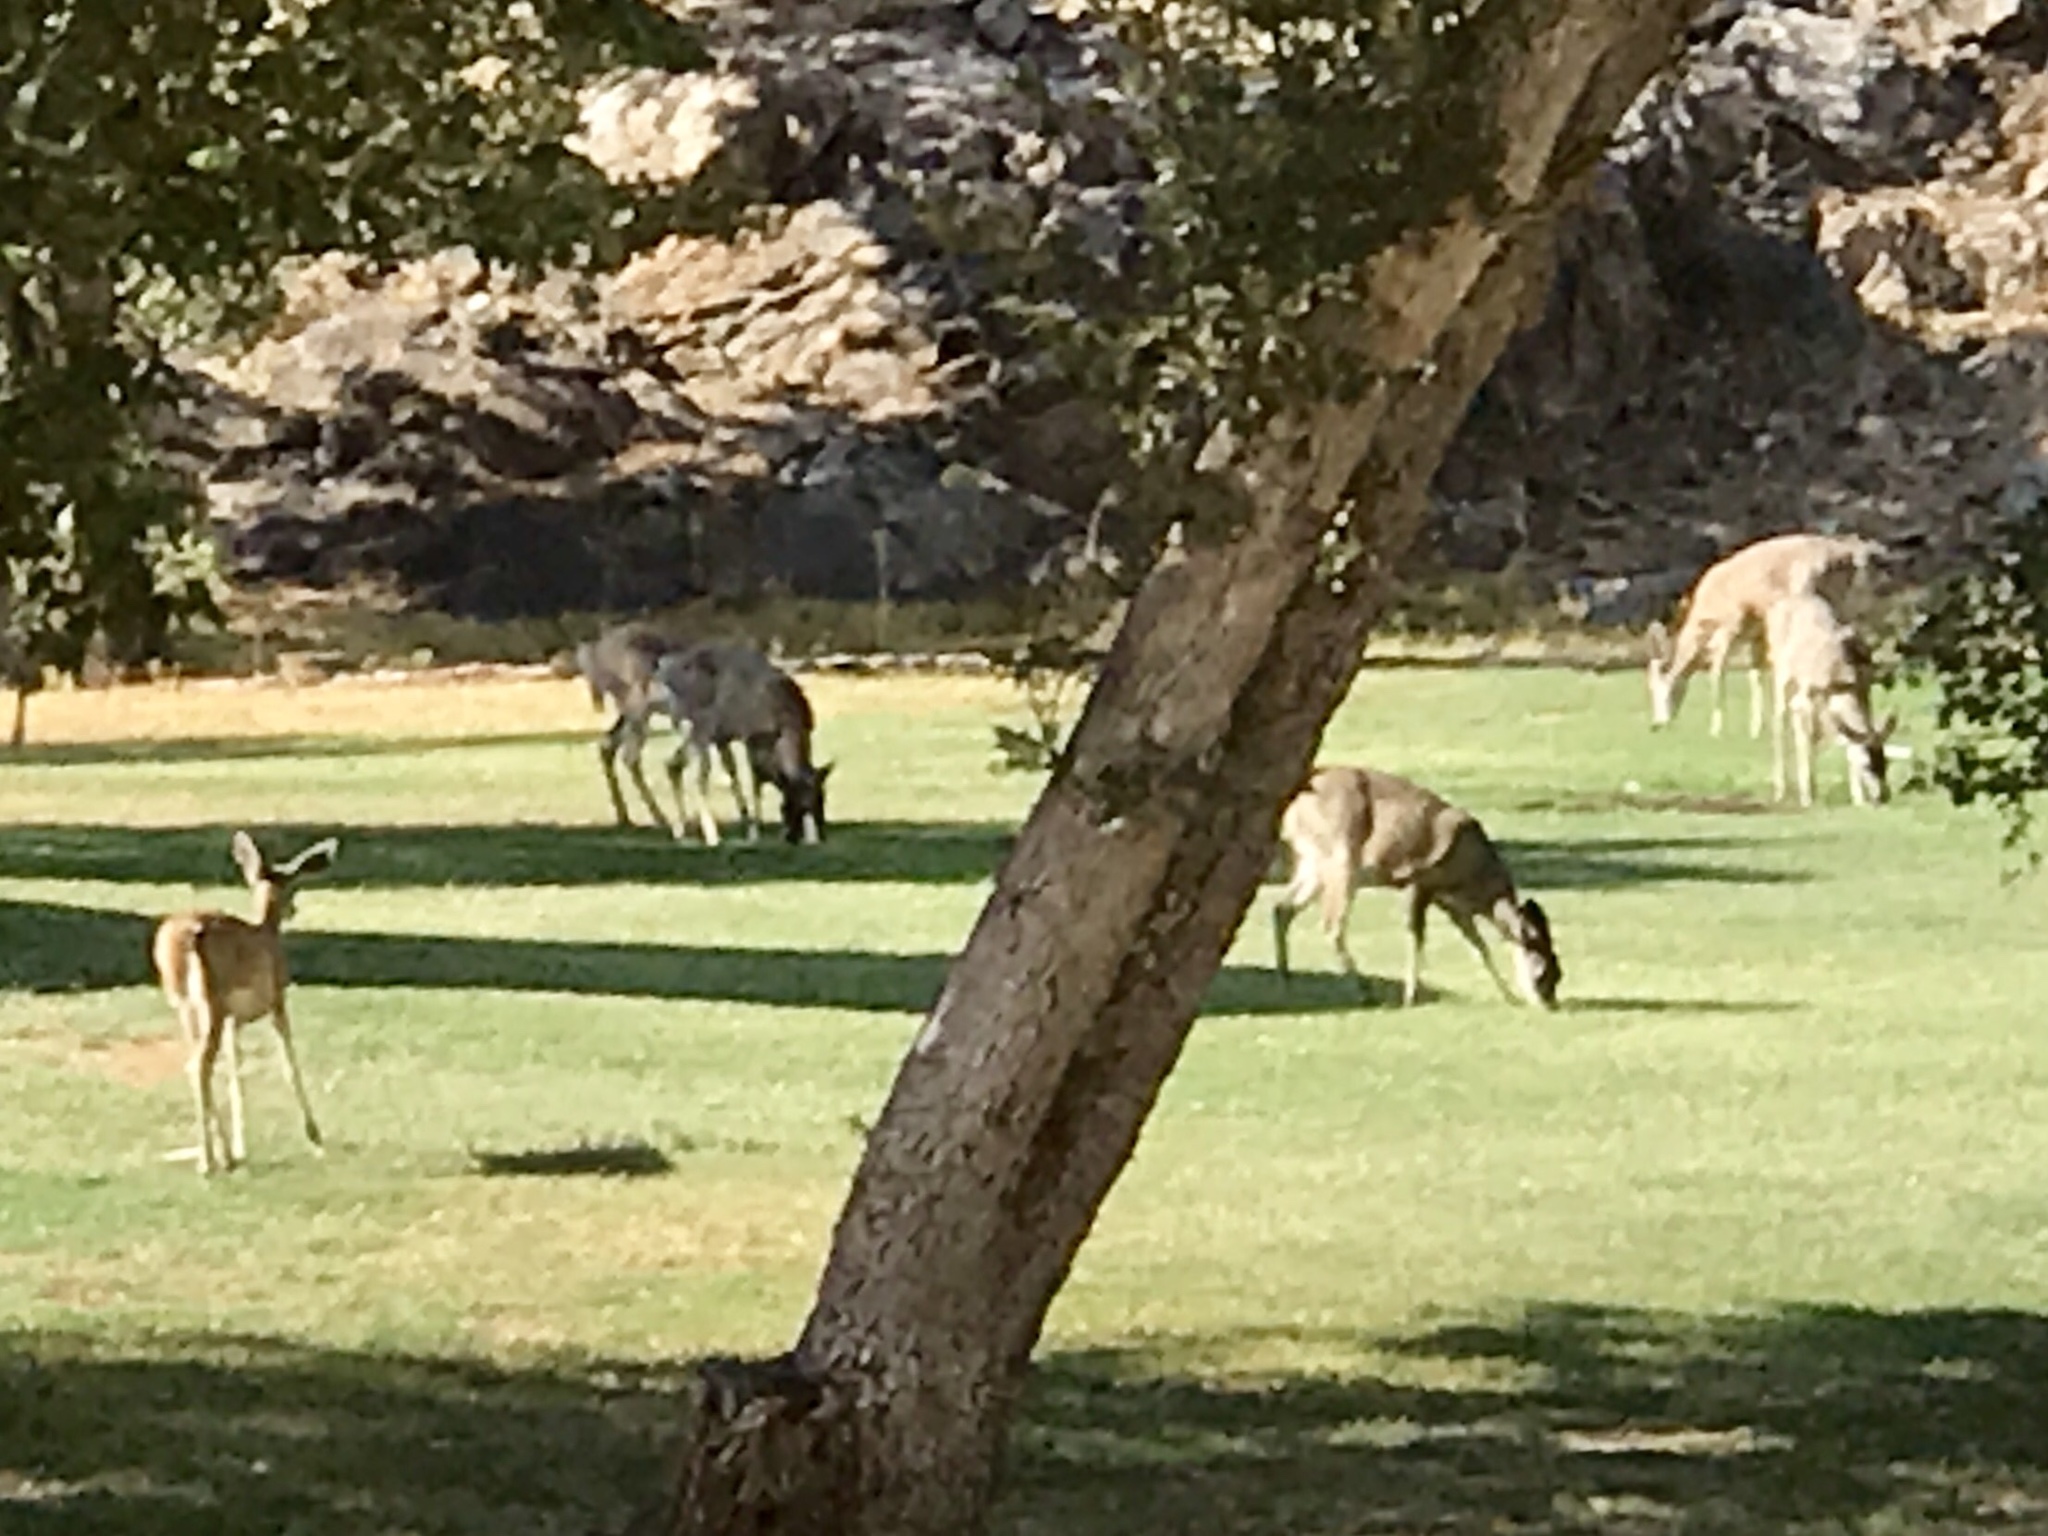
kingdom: Animalia
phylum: Chordata
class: Mammalia
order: Artiodactyla
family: Cervidae
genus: Odocoileus
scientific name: Odocoileus virginianus
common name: White-tailed deer
